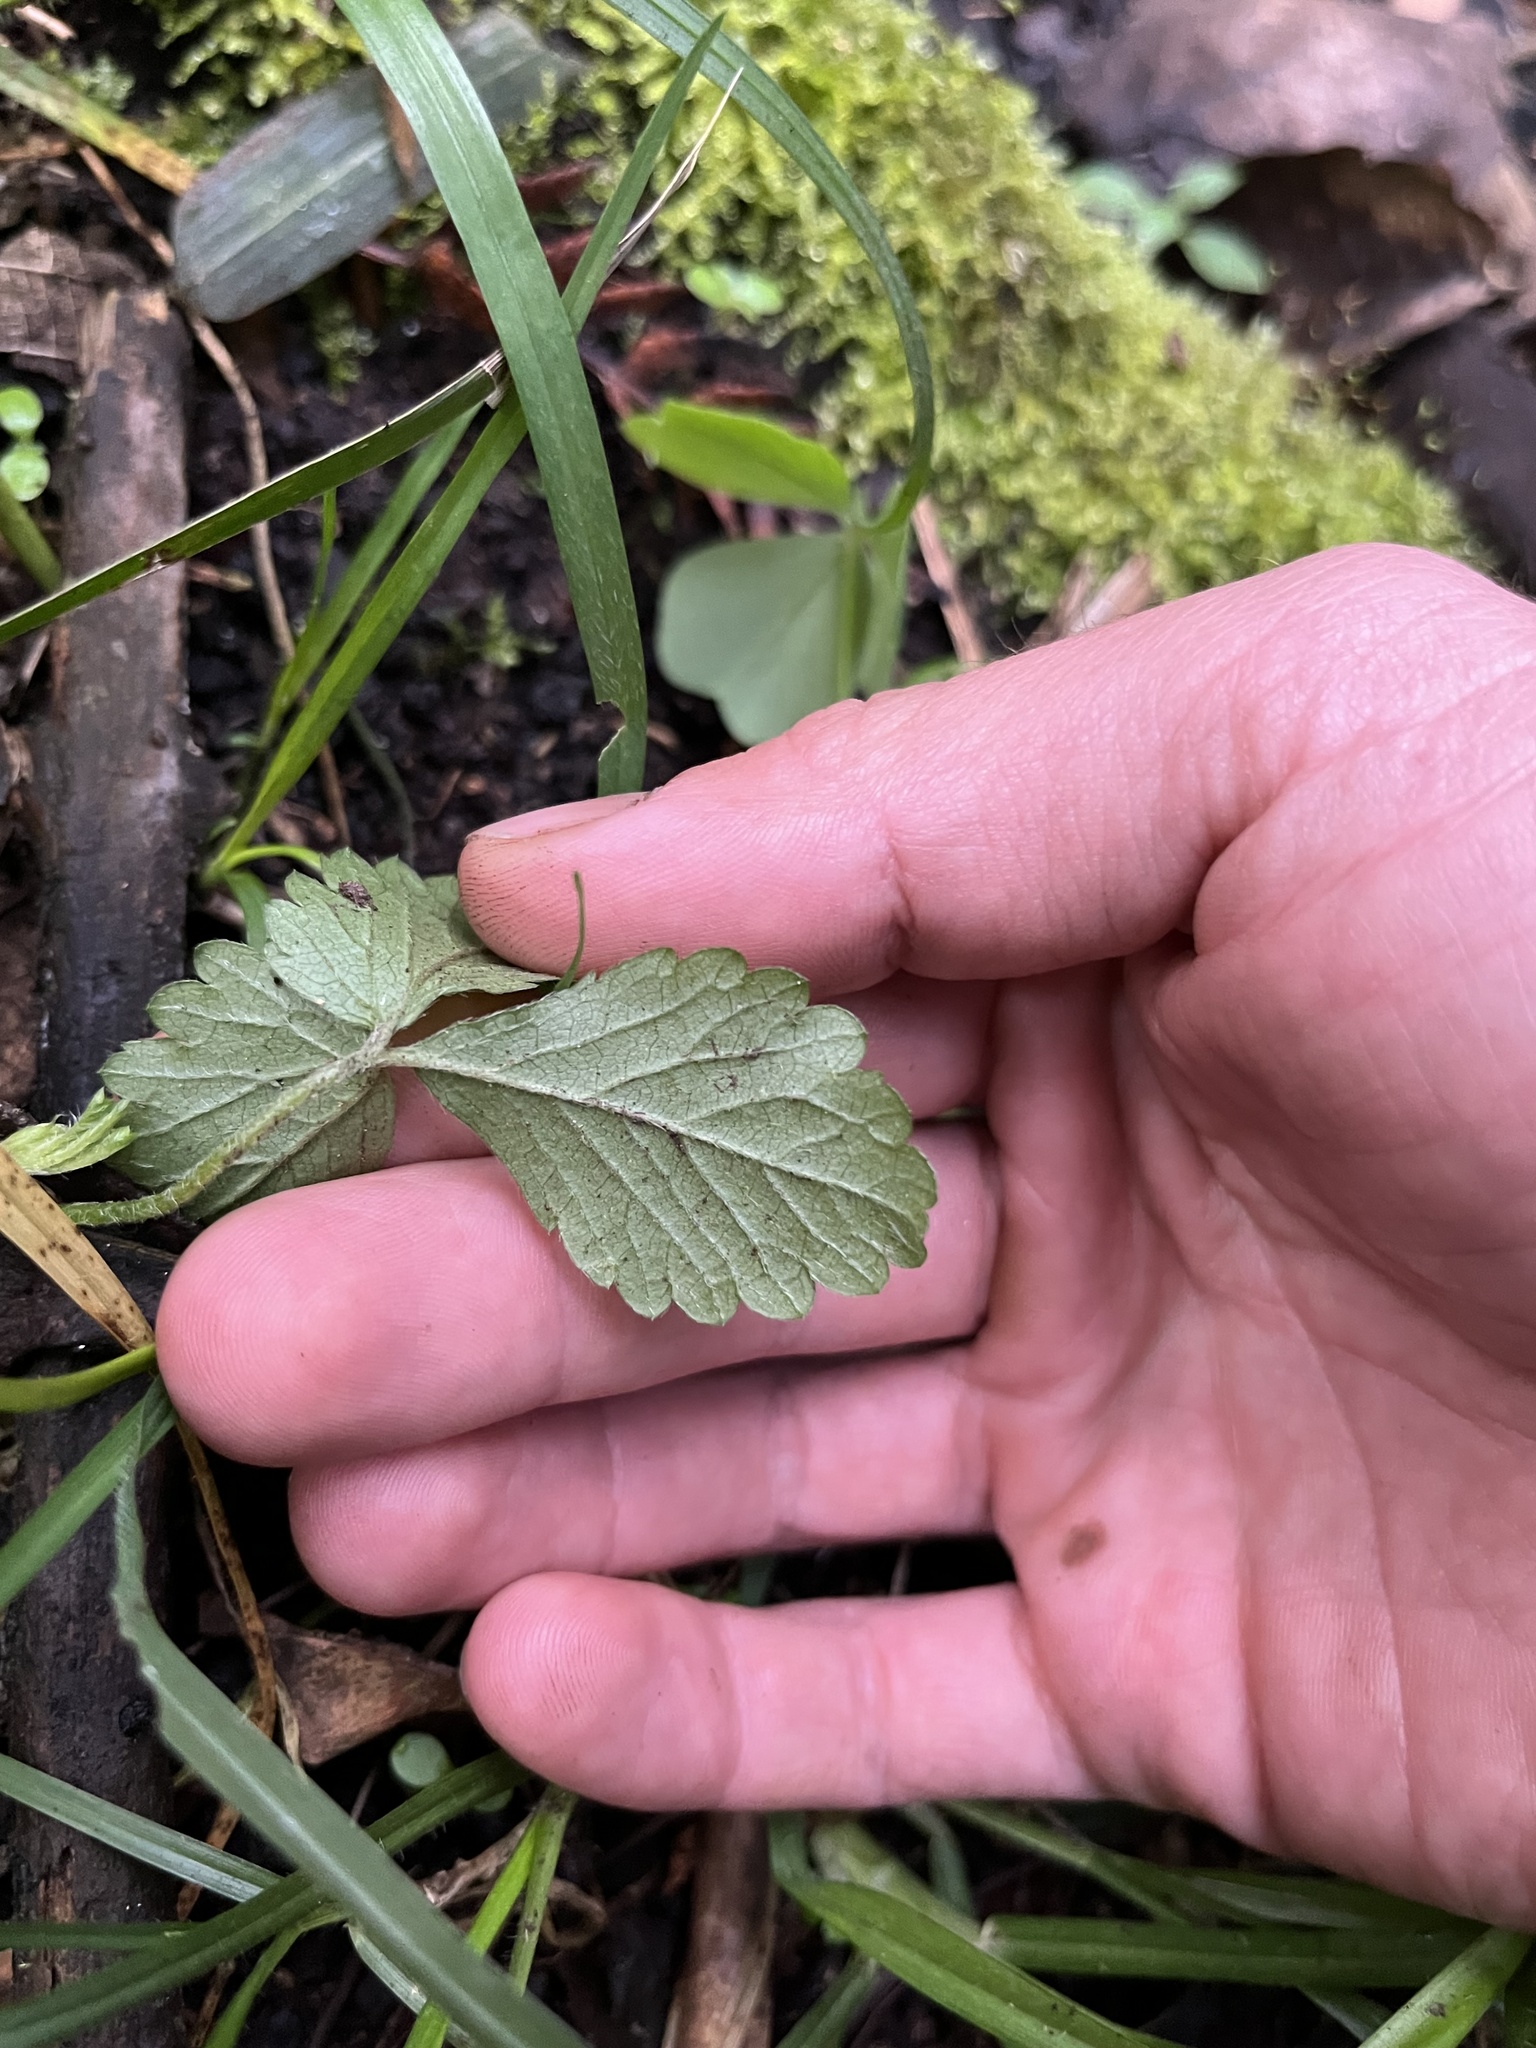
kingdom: Plantae
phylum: Tracheophyta
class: Magnoliopsida
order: Rosales
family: Rosaceae
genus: Potentilla
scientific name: Potentilla indica
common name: Yellow-flowered strawberry
